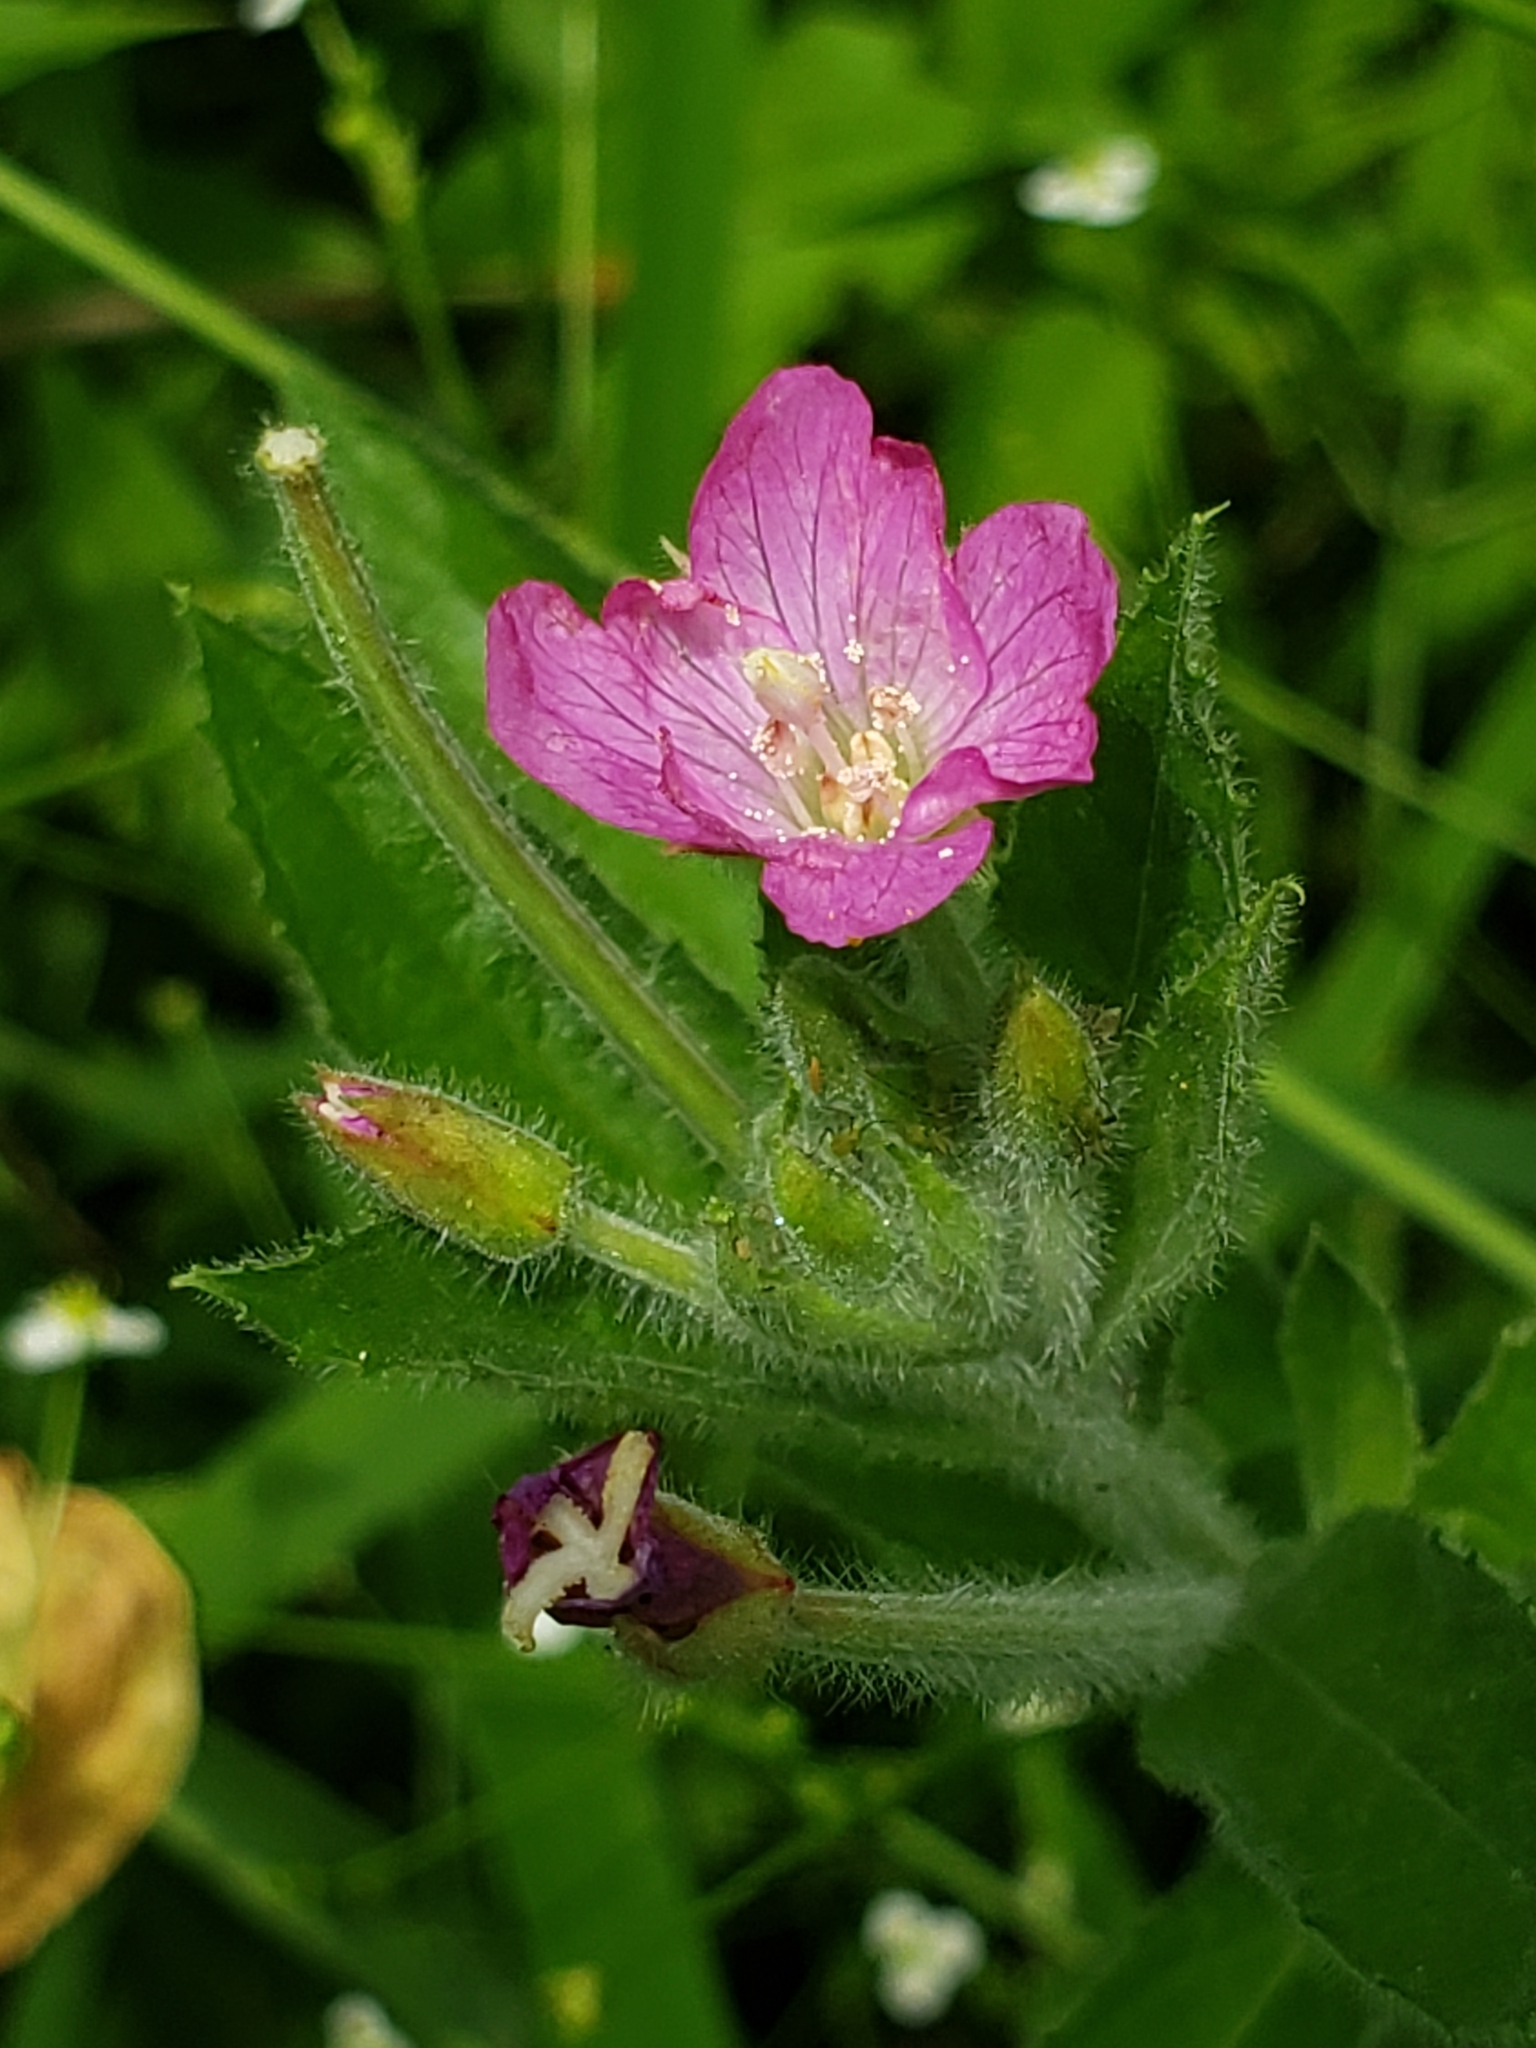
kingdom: Plantae
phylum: Tracheophyta
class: Magnoliopsida
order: Myrtales
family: Onagraceae
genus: Epilobium
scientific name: Epilobium hirsutum
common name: Great willowherb
